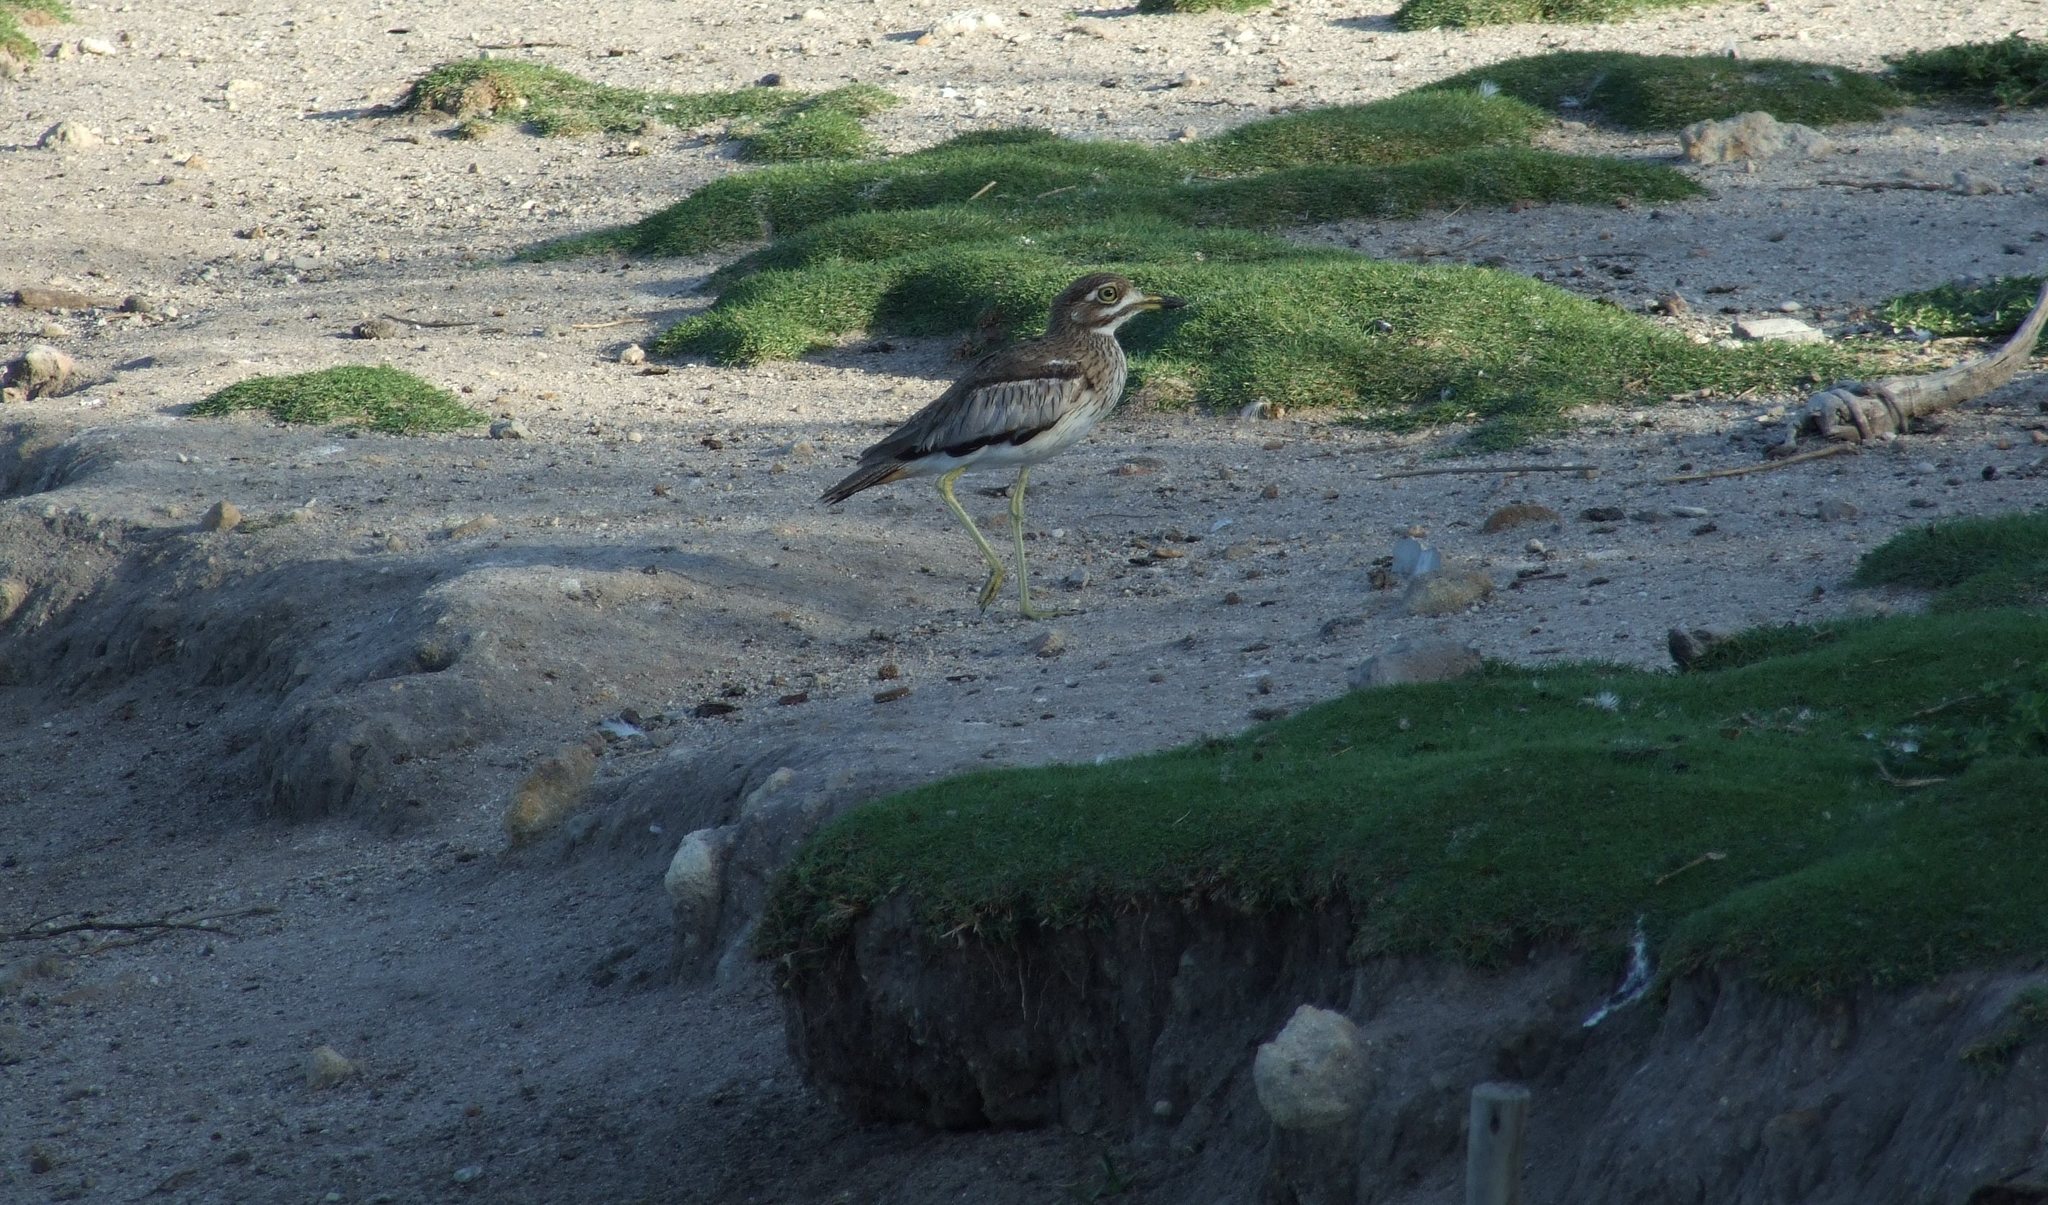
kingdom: Animalia
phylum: Chordata
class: Aves
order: Charadriiformes
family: Burhinidae
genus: Burhinus
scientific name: Burhinus vermiculatus
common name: Water thick-knee
